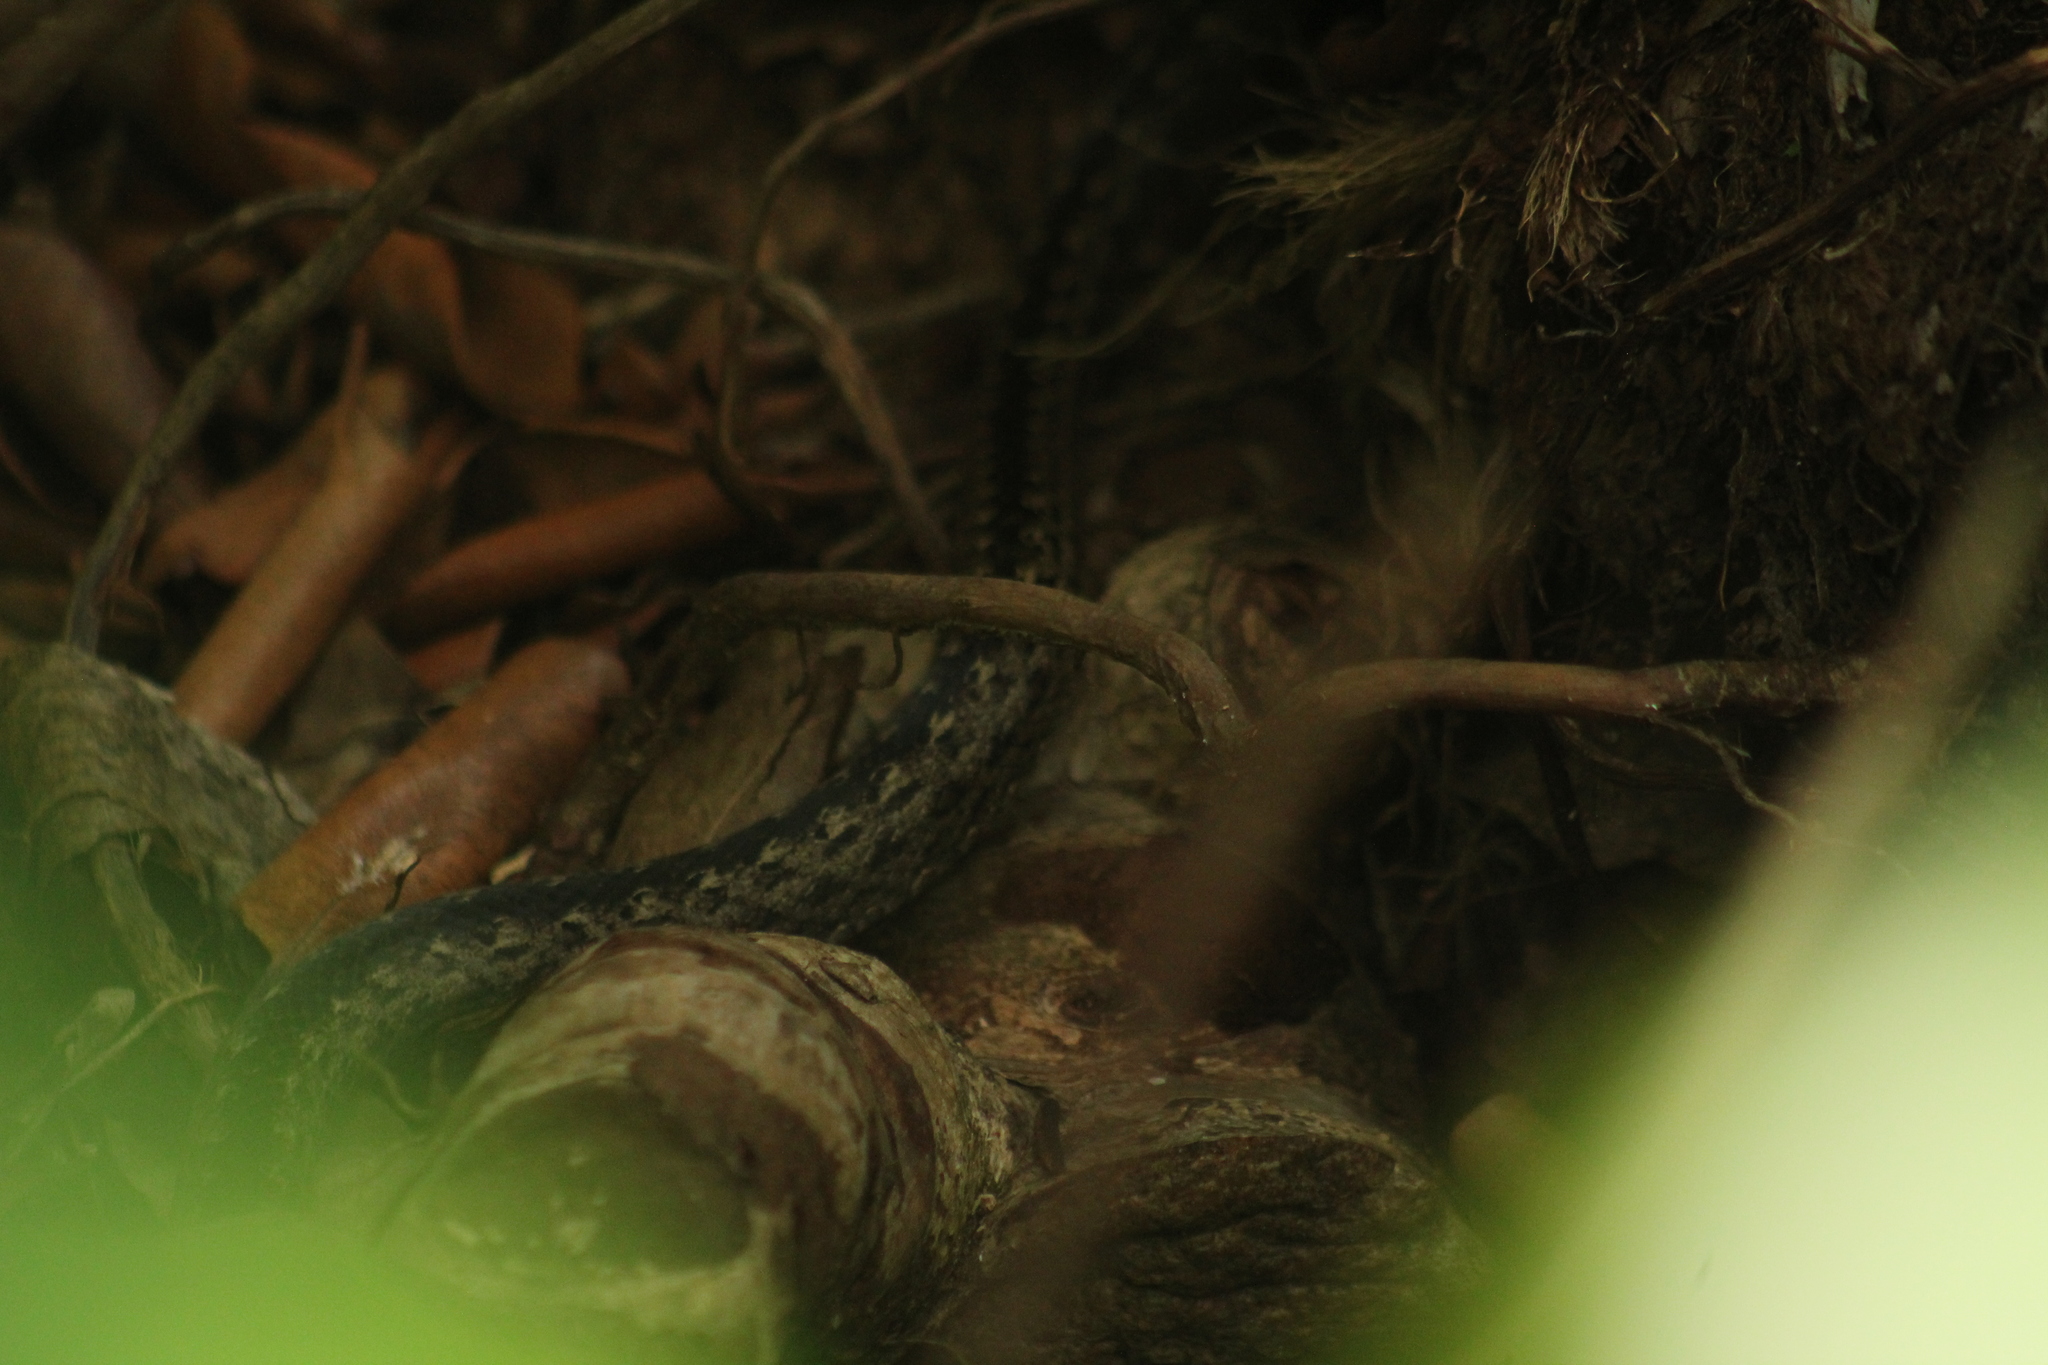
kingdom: Animalia
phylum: Chordata
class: Squamata
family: Colubridae
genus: Alsophis
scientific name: Alsophis rufiventris
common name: Orange-bellied racer
